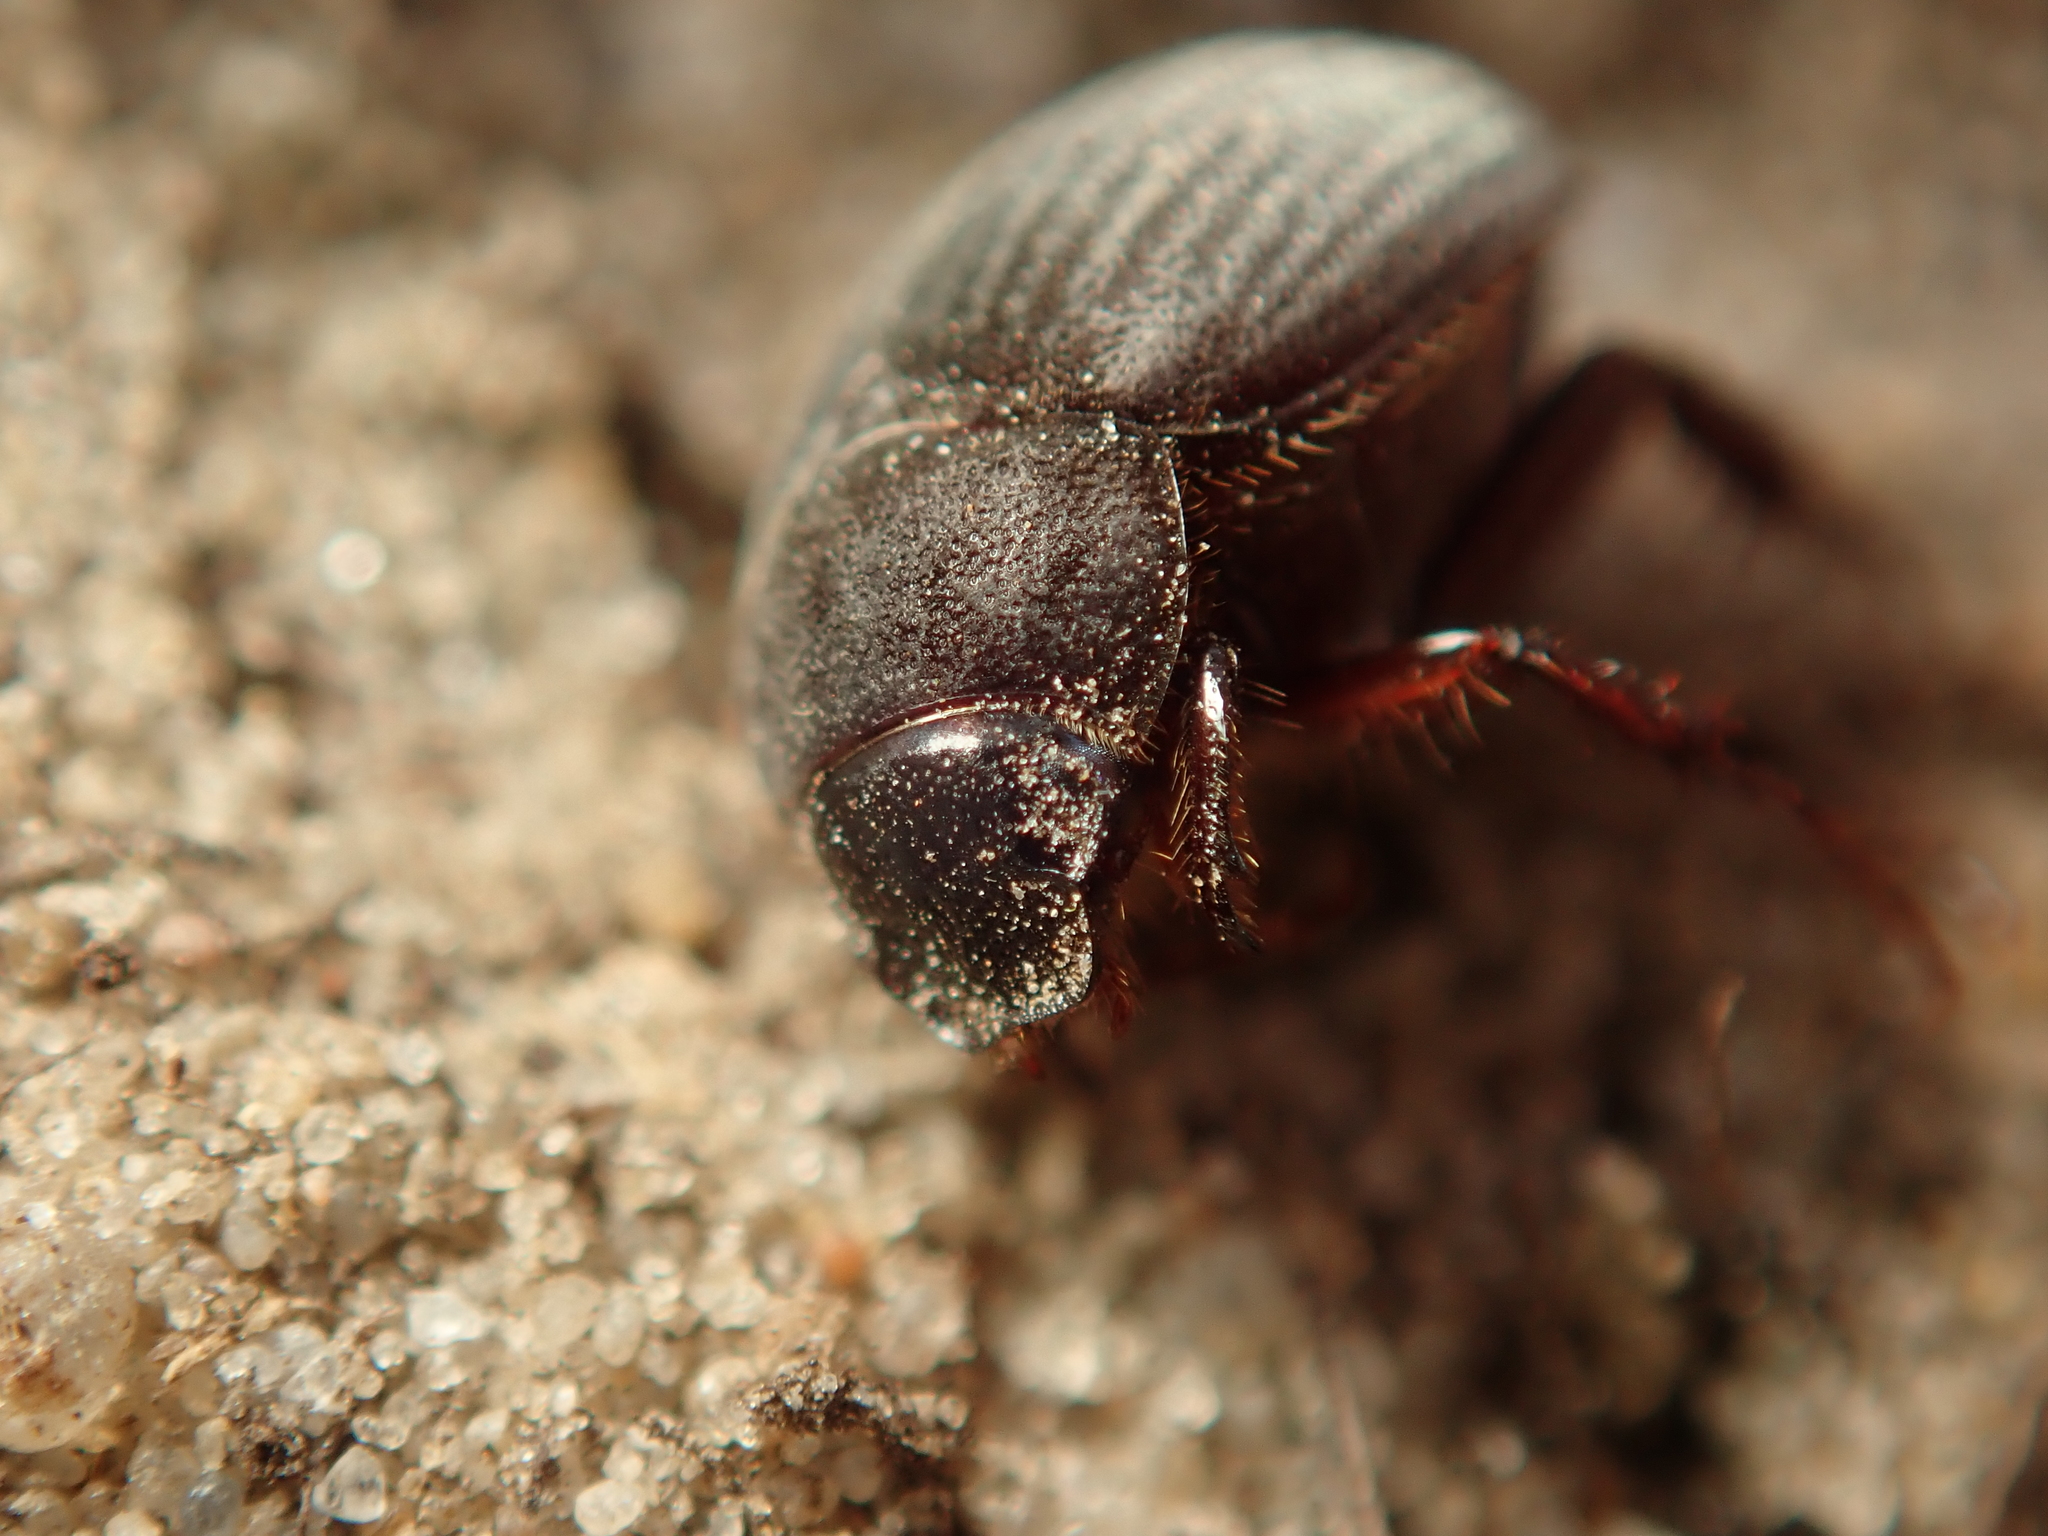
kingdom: Animalia
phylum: Arthropoda
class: Insecta
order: Coleoptera
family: Scarabaeidae
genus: Maladera
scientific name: Maladera holosericea
